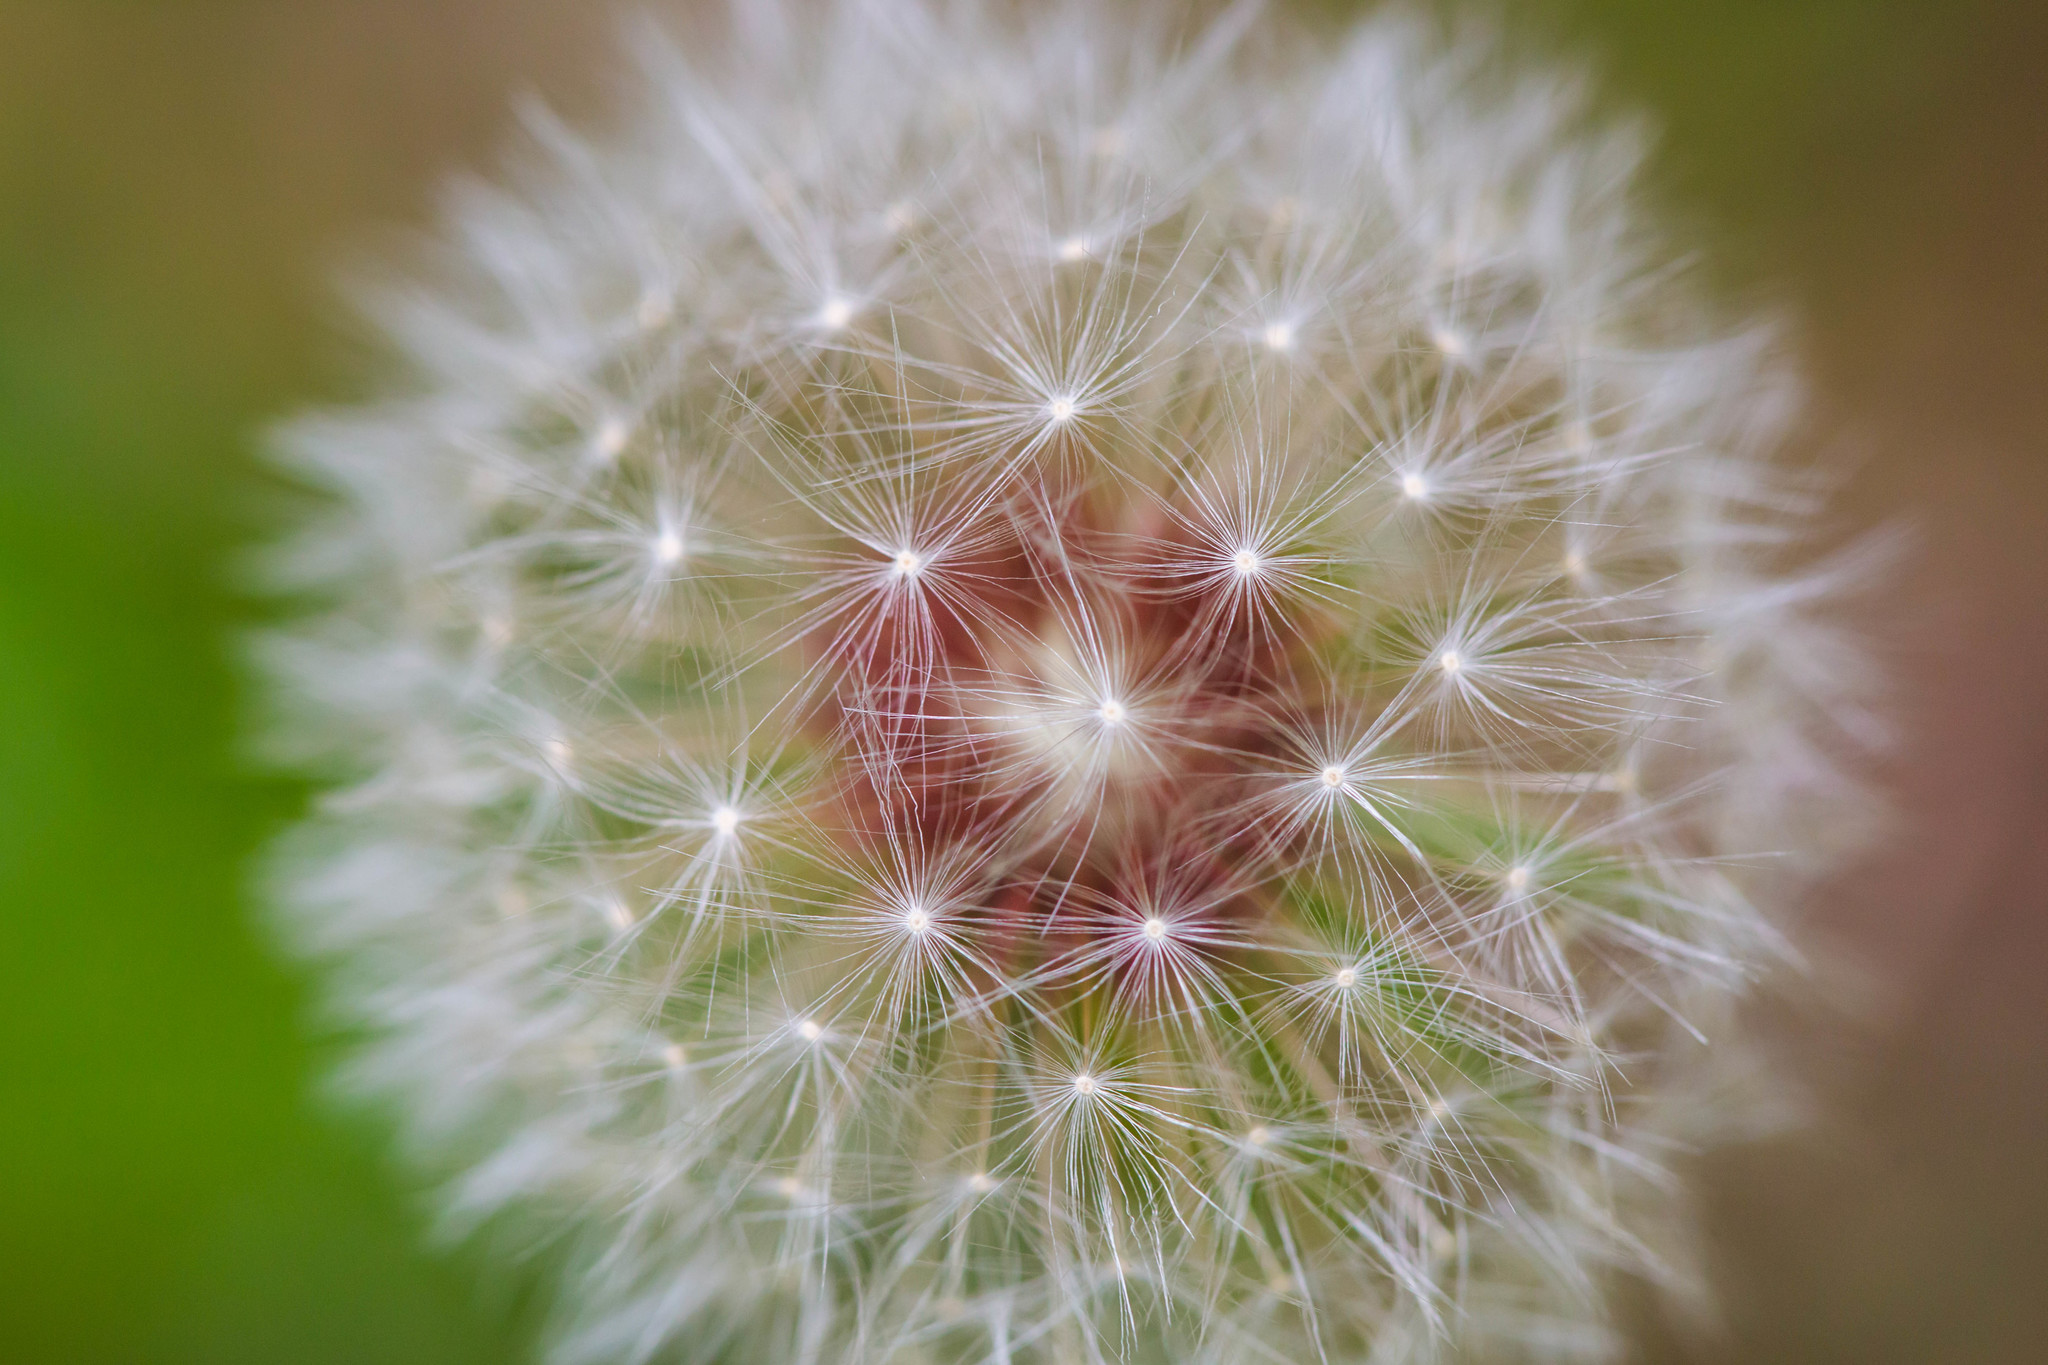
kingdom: Plantae
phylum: Tracheophyta
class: Magnoliopsida
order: Asterales
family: Asteraceae
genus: Taraxacum
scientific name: Taraxacum officinale
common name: Common dandelion
